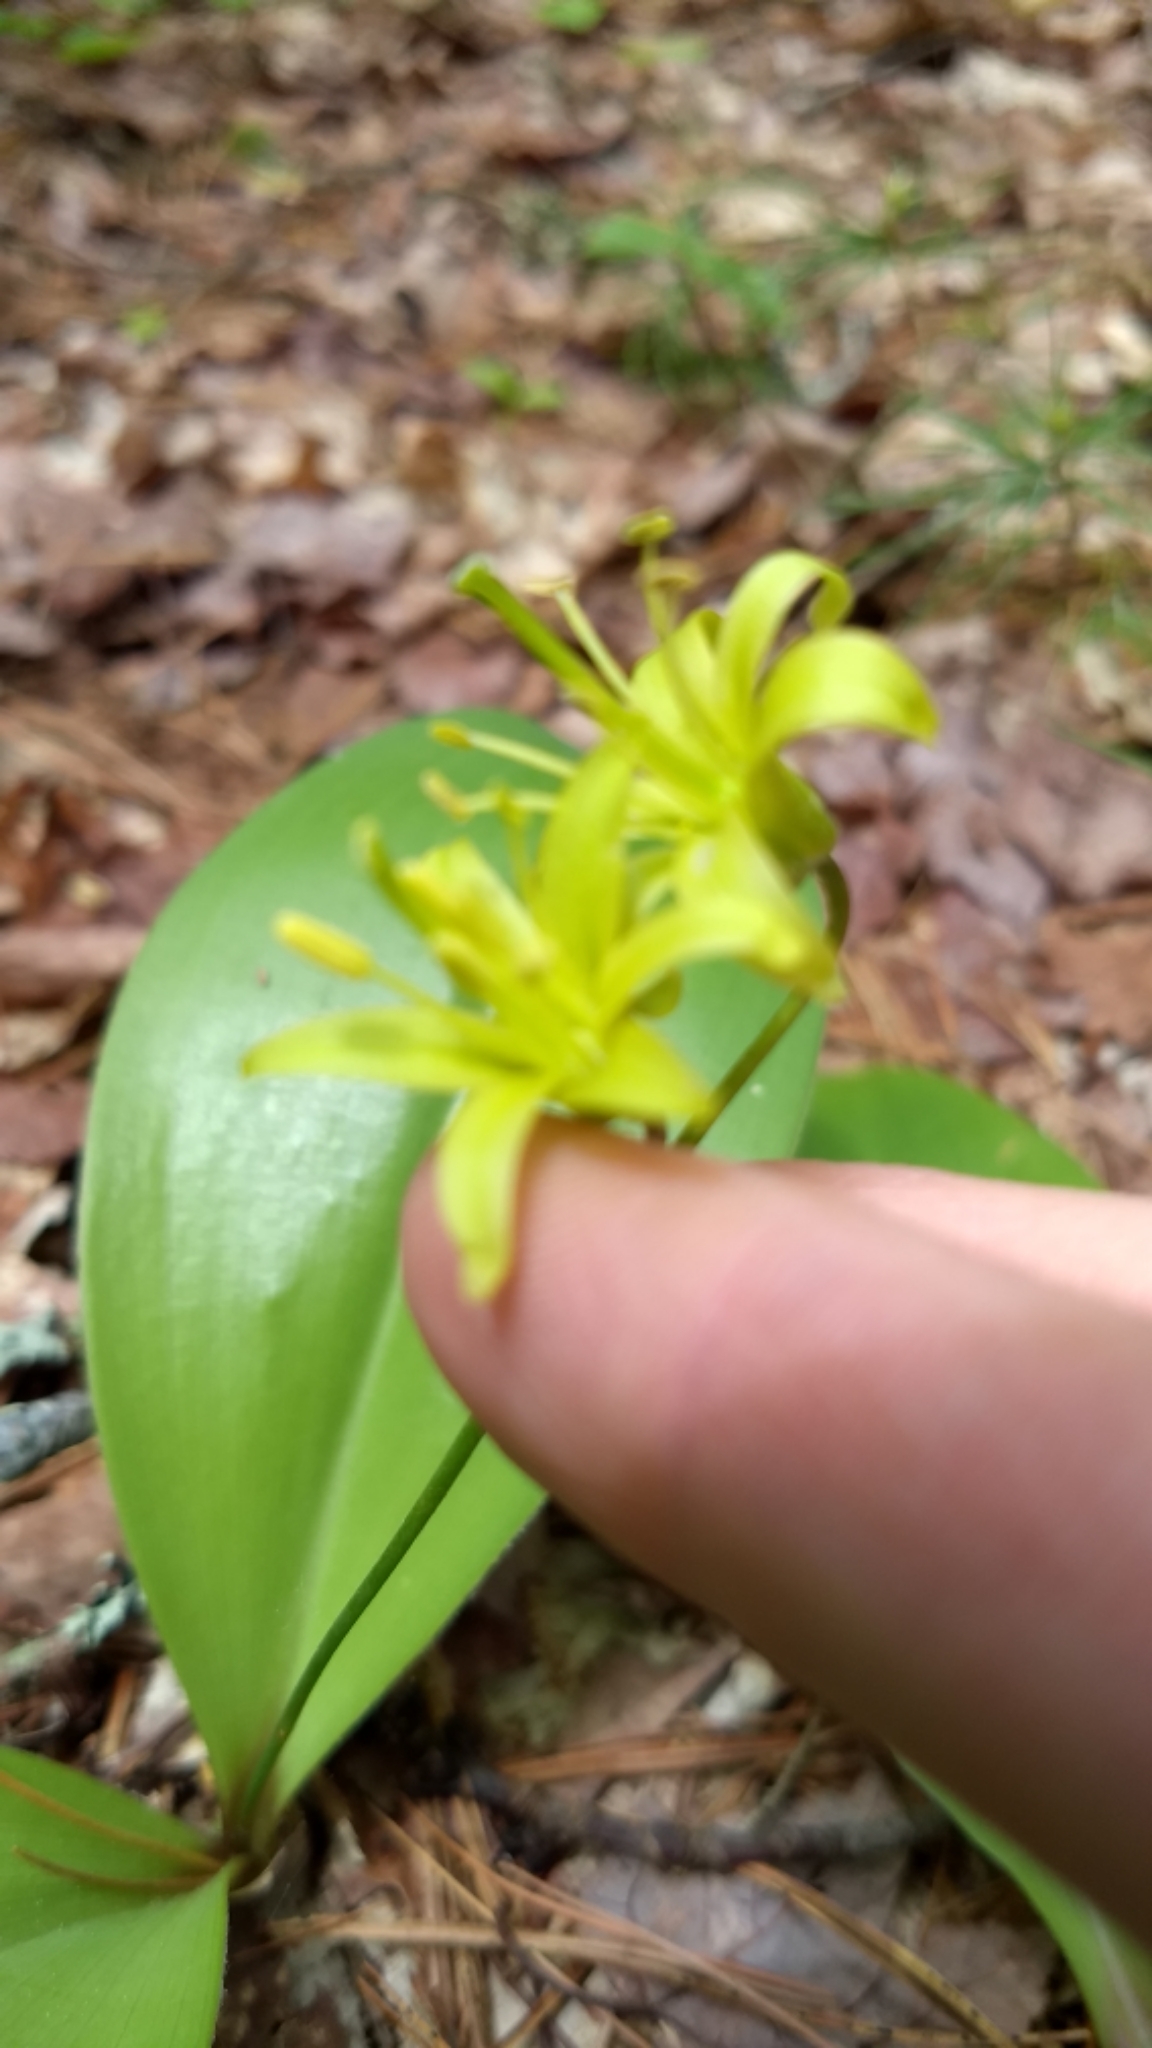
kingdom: Plantae
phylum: Tracheophyta
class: Liliopsida
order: Liliales
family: Liliaceae
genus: Clintonia
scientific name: Clintonia borealis
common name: Yellow clintonia
